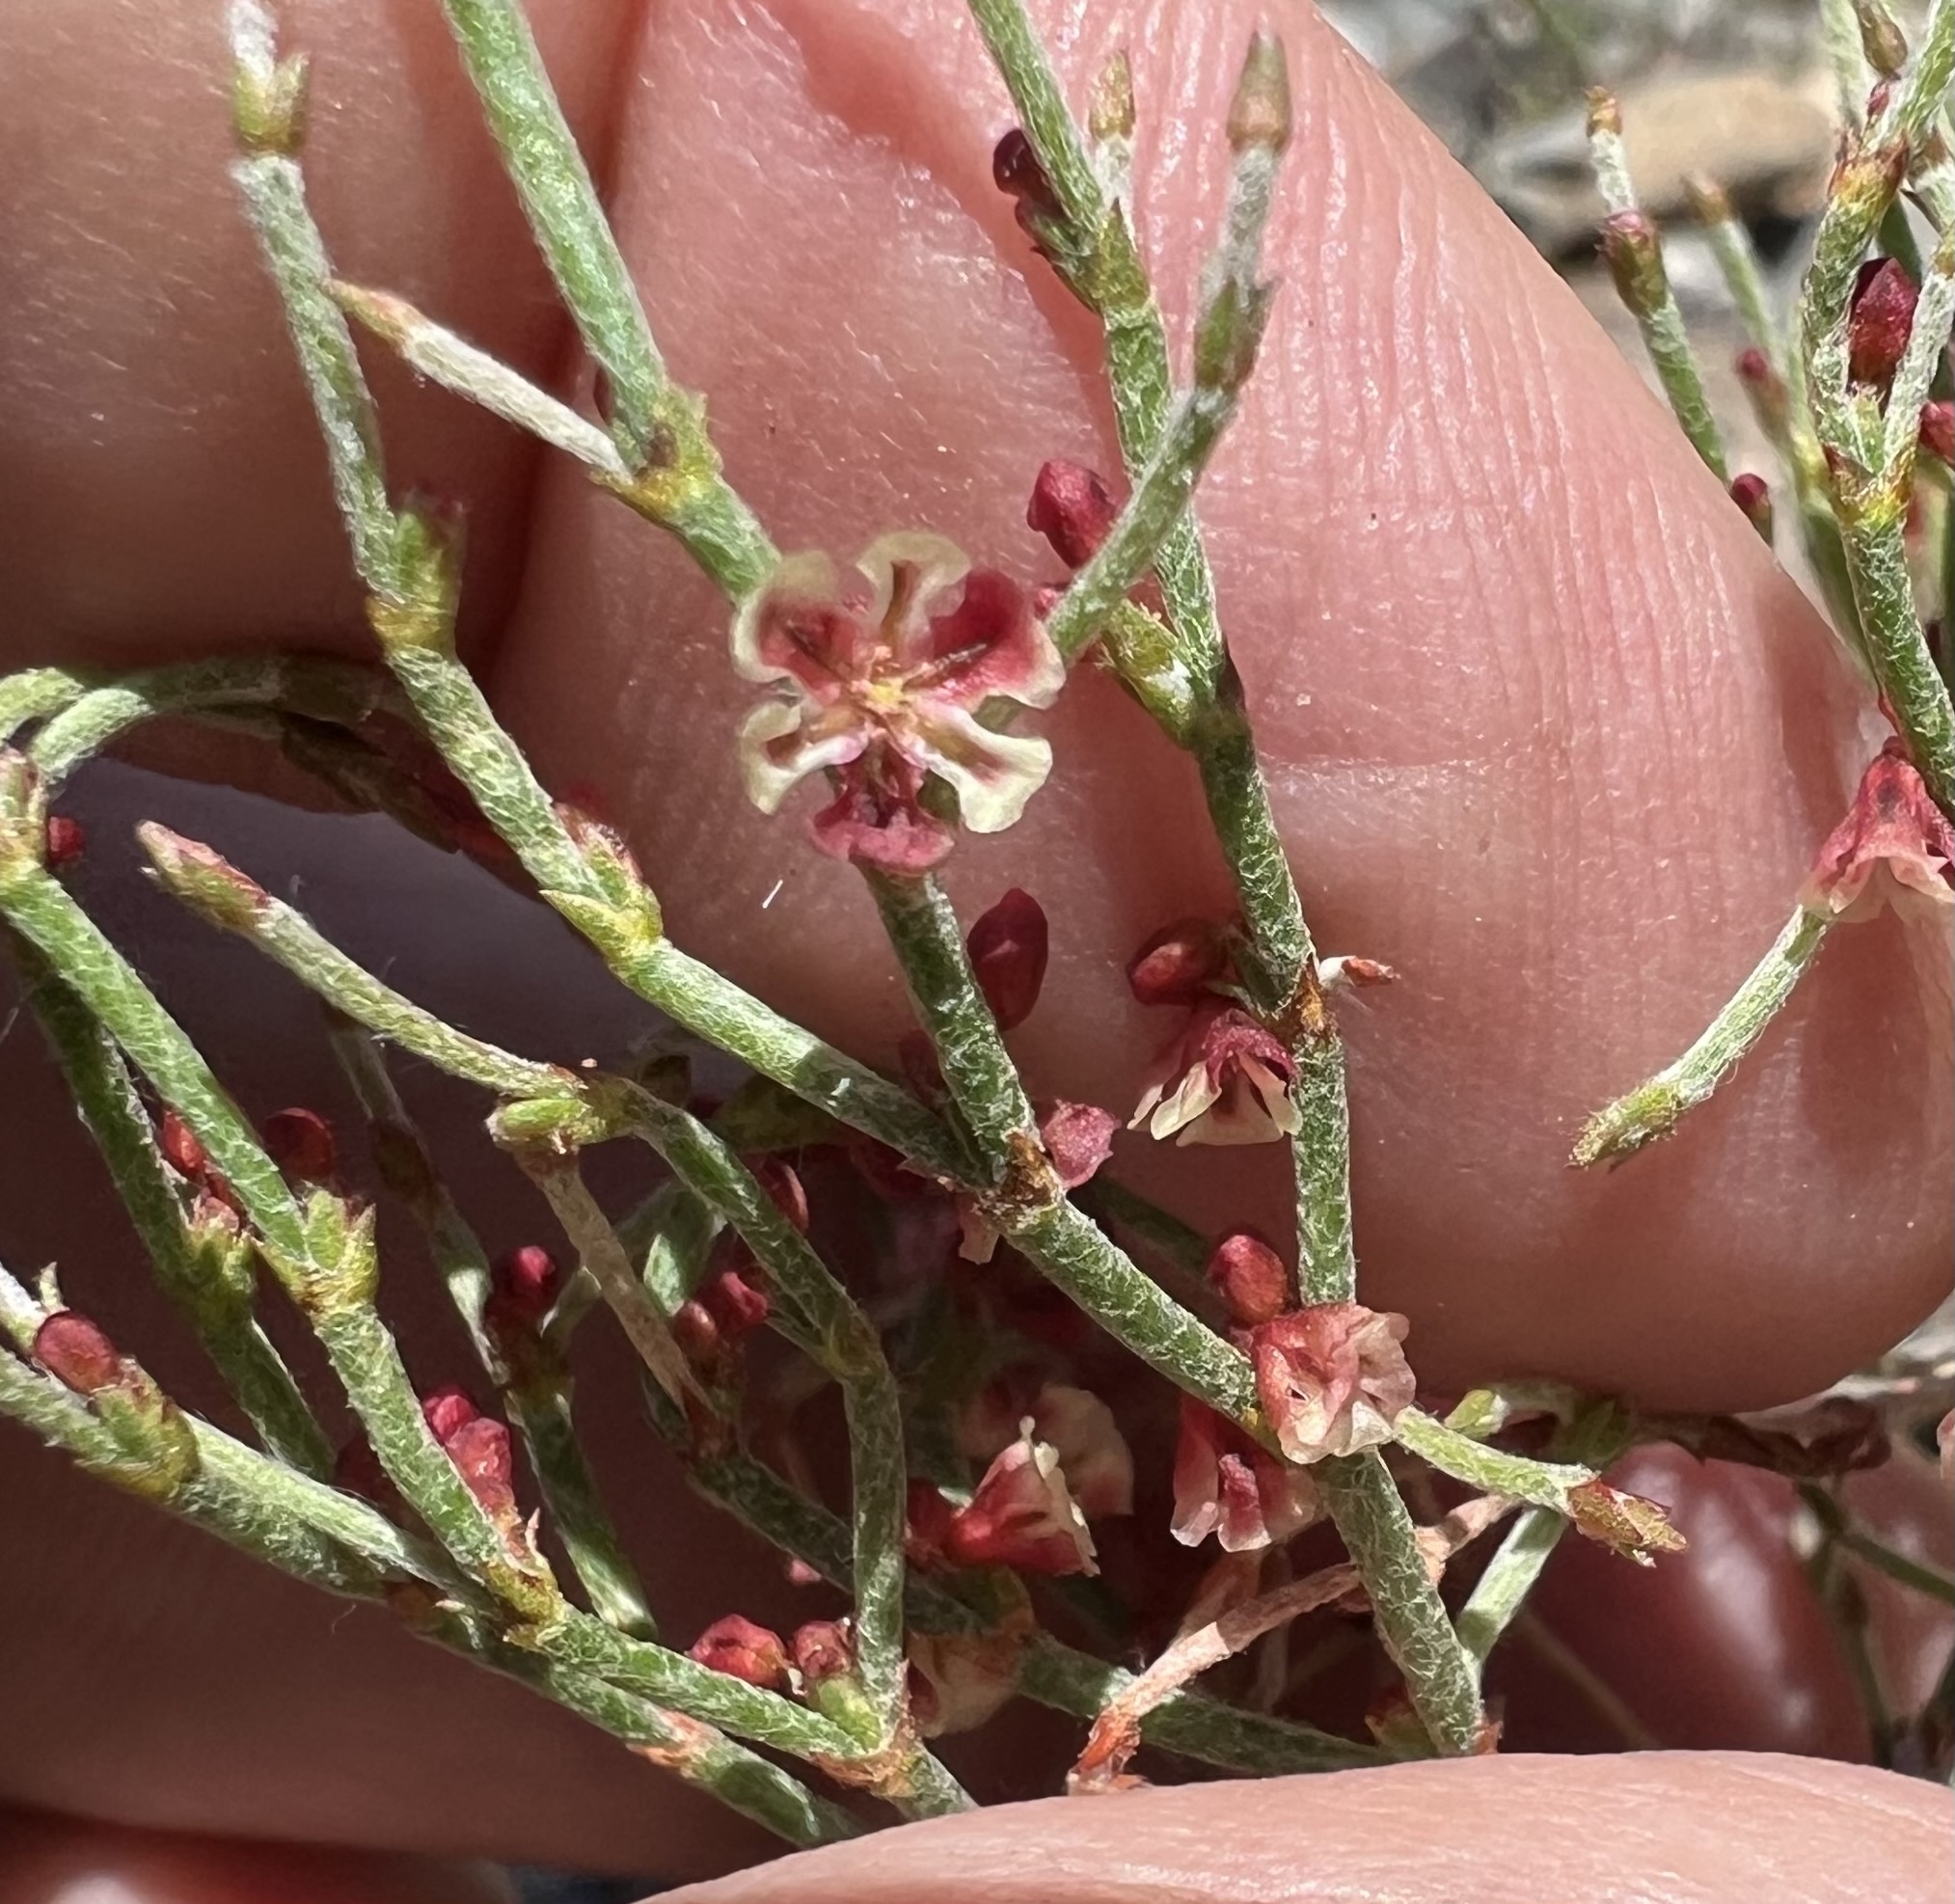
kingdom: Plantae
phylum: Tracheophyta
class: Magnoliopsida
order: Caryophyllales
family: Polygonaceae
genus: Eriogonum
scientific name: Eriogonum nidularium
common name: Bird's-nest wild buckwheat
